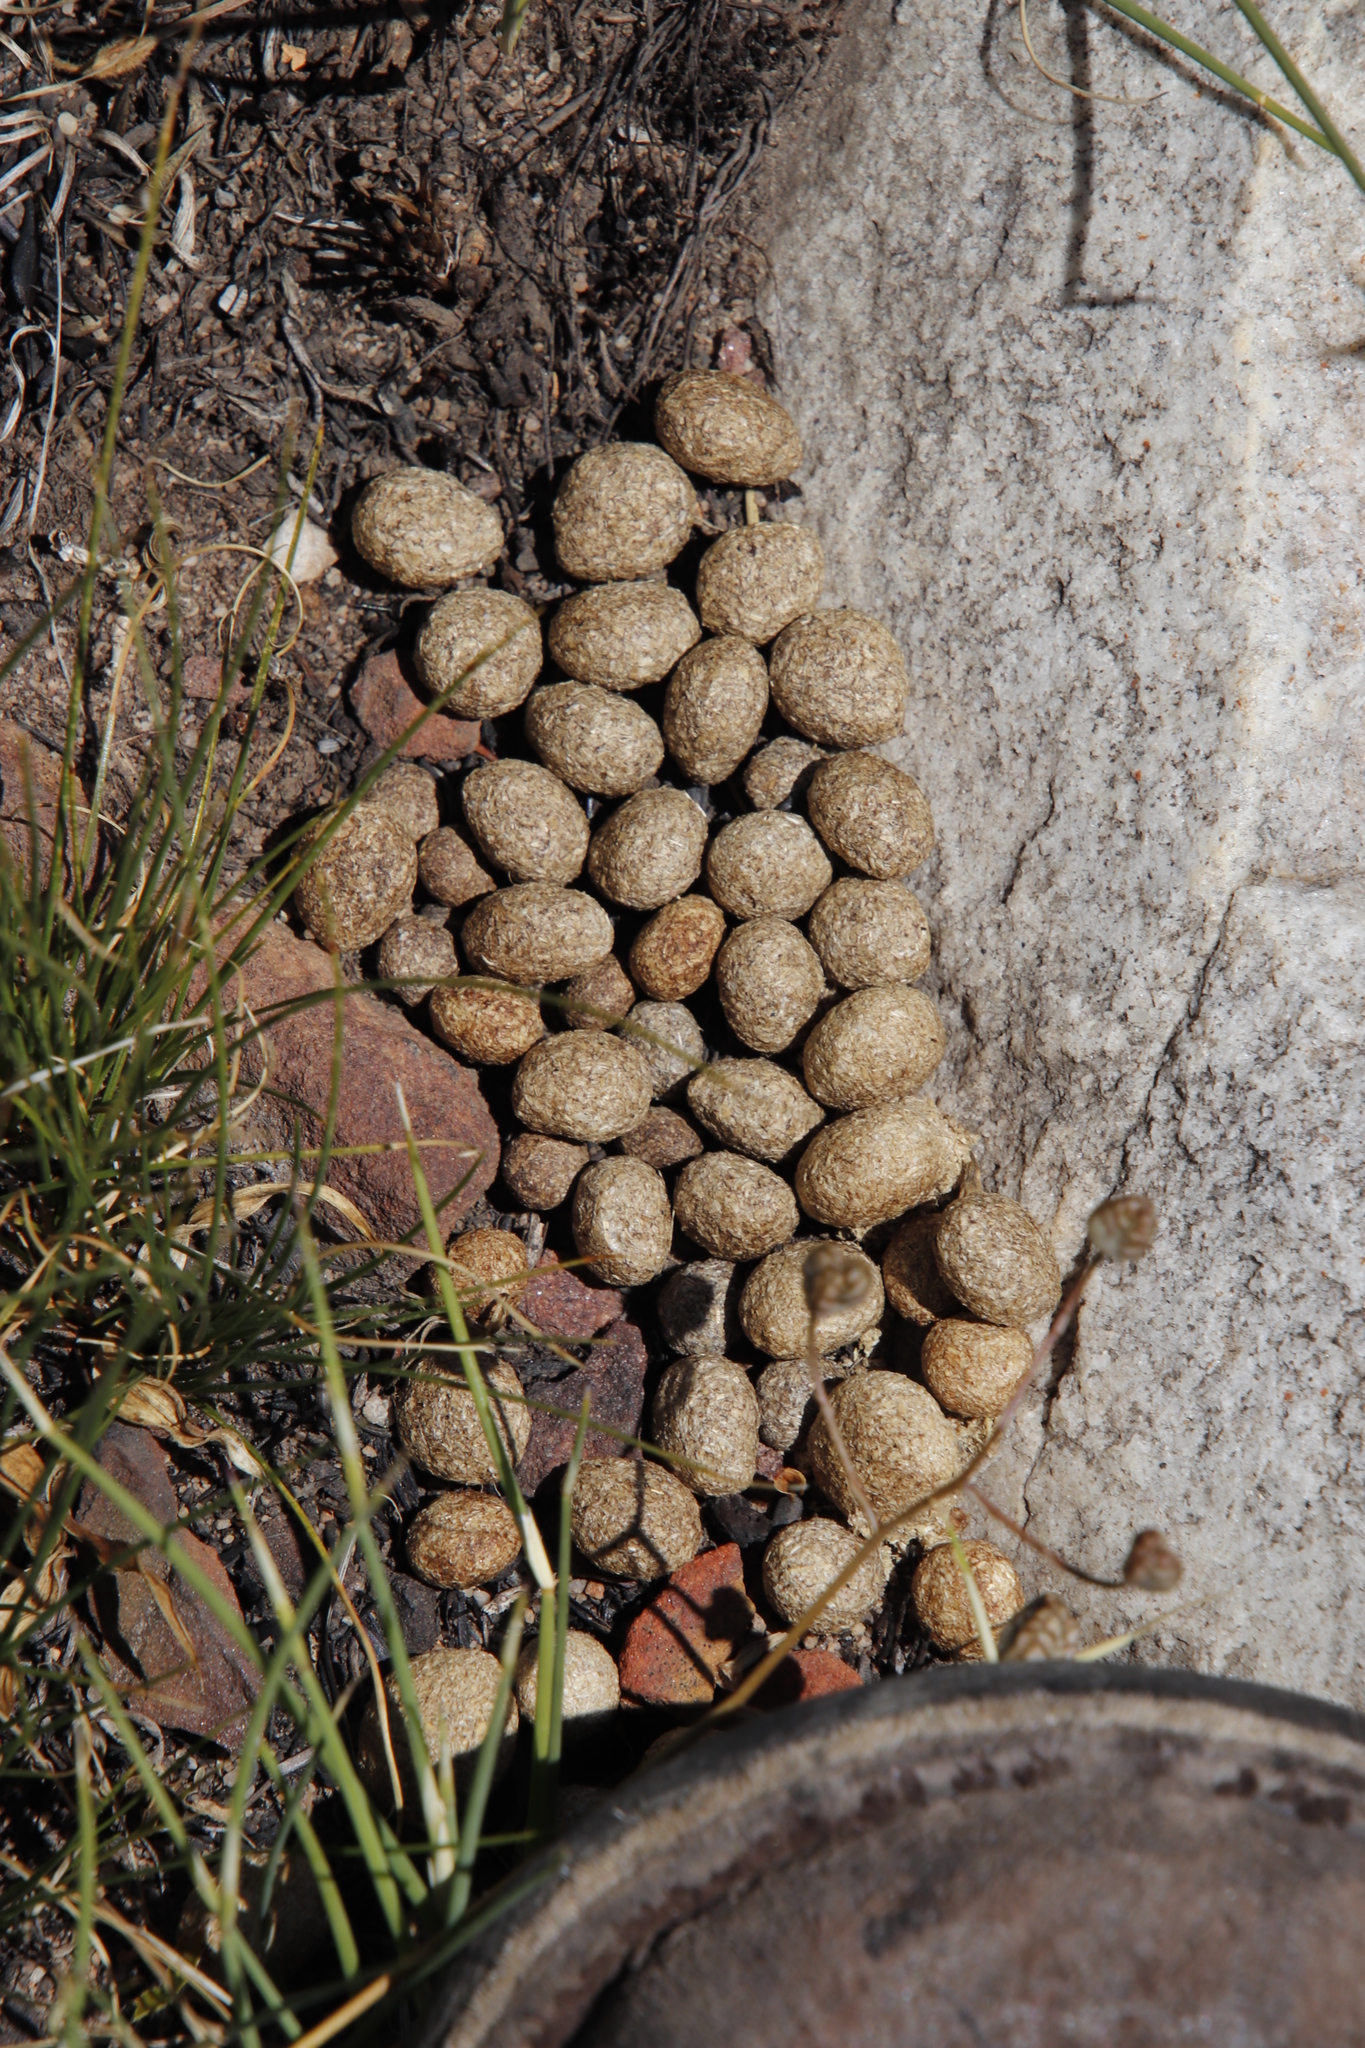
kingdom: Animalia
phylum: Chordata
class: Mammalia
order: Lagomorpha
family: Leporidae
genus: Pronolagus
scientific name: Pronolagus saundersiae
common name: Hewitt's red rock hare
